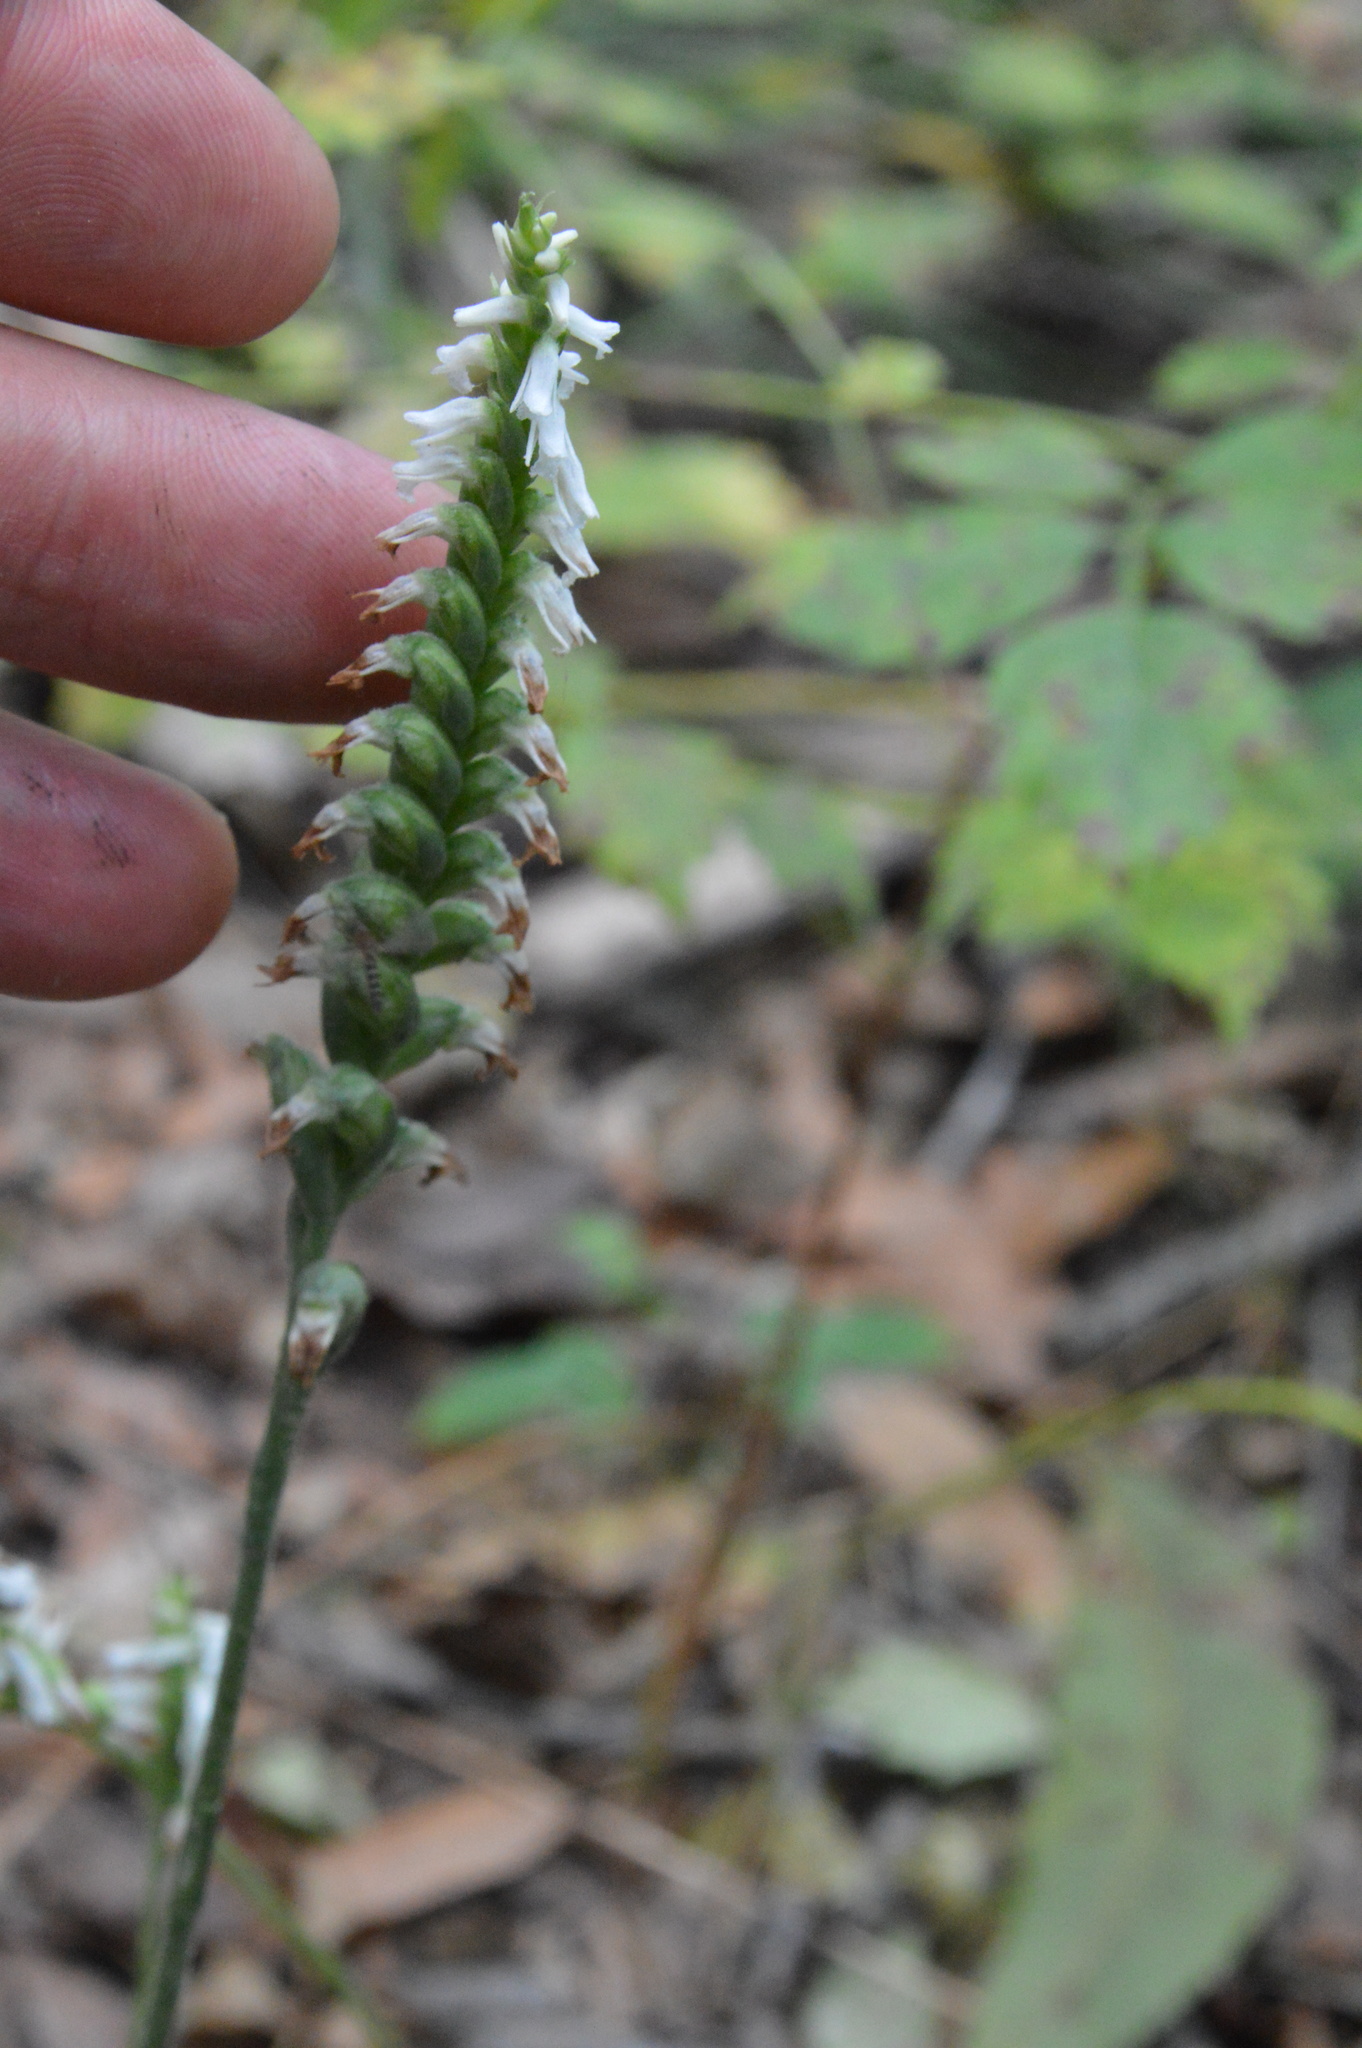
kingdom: Plantae
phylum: Tracheophyta
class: Liliopsida
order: Asparagales
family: Orchidaceae
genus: Spiranthes
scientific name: Spiranthes ovalis
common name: October ladies'-tresses
